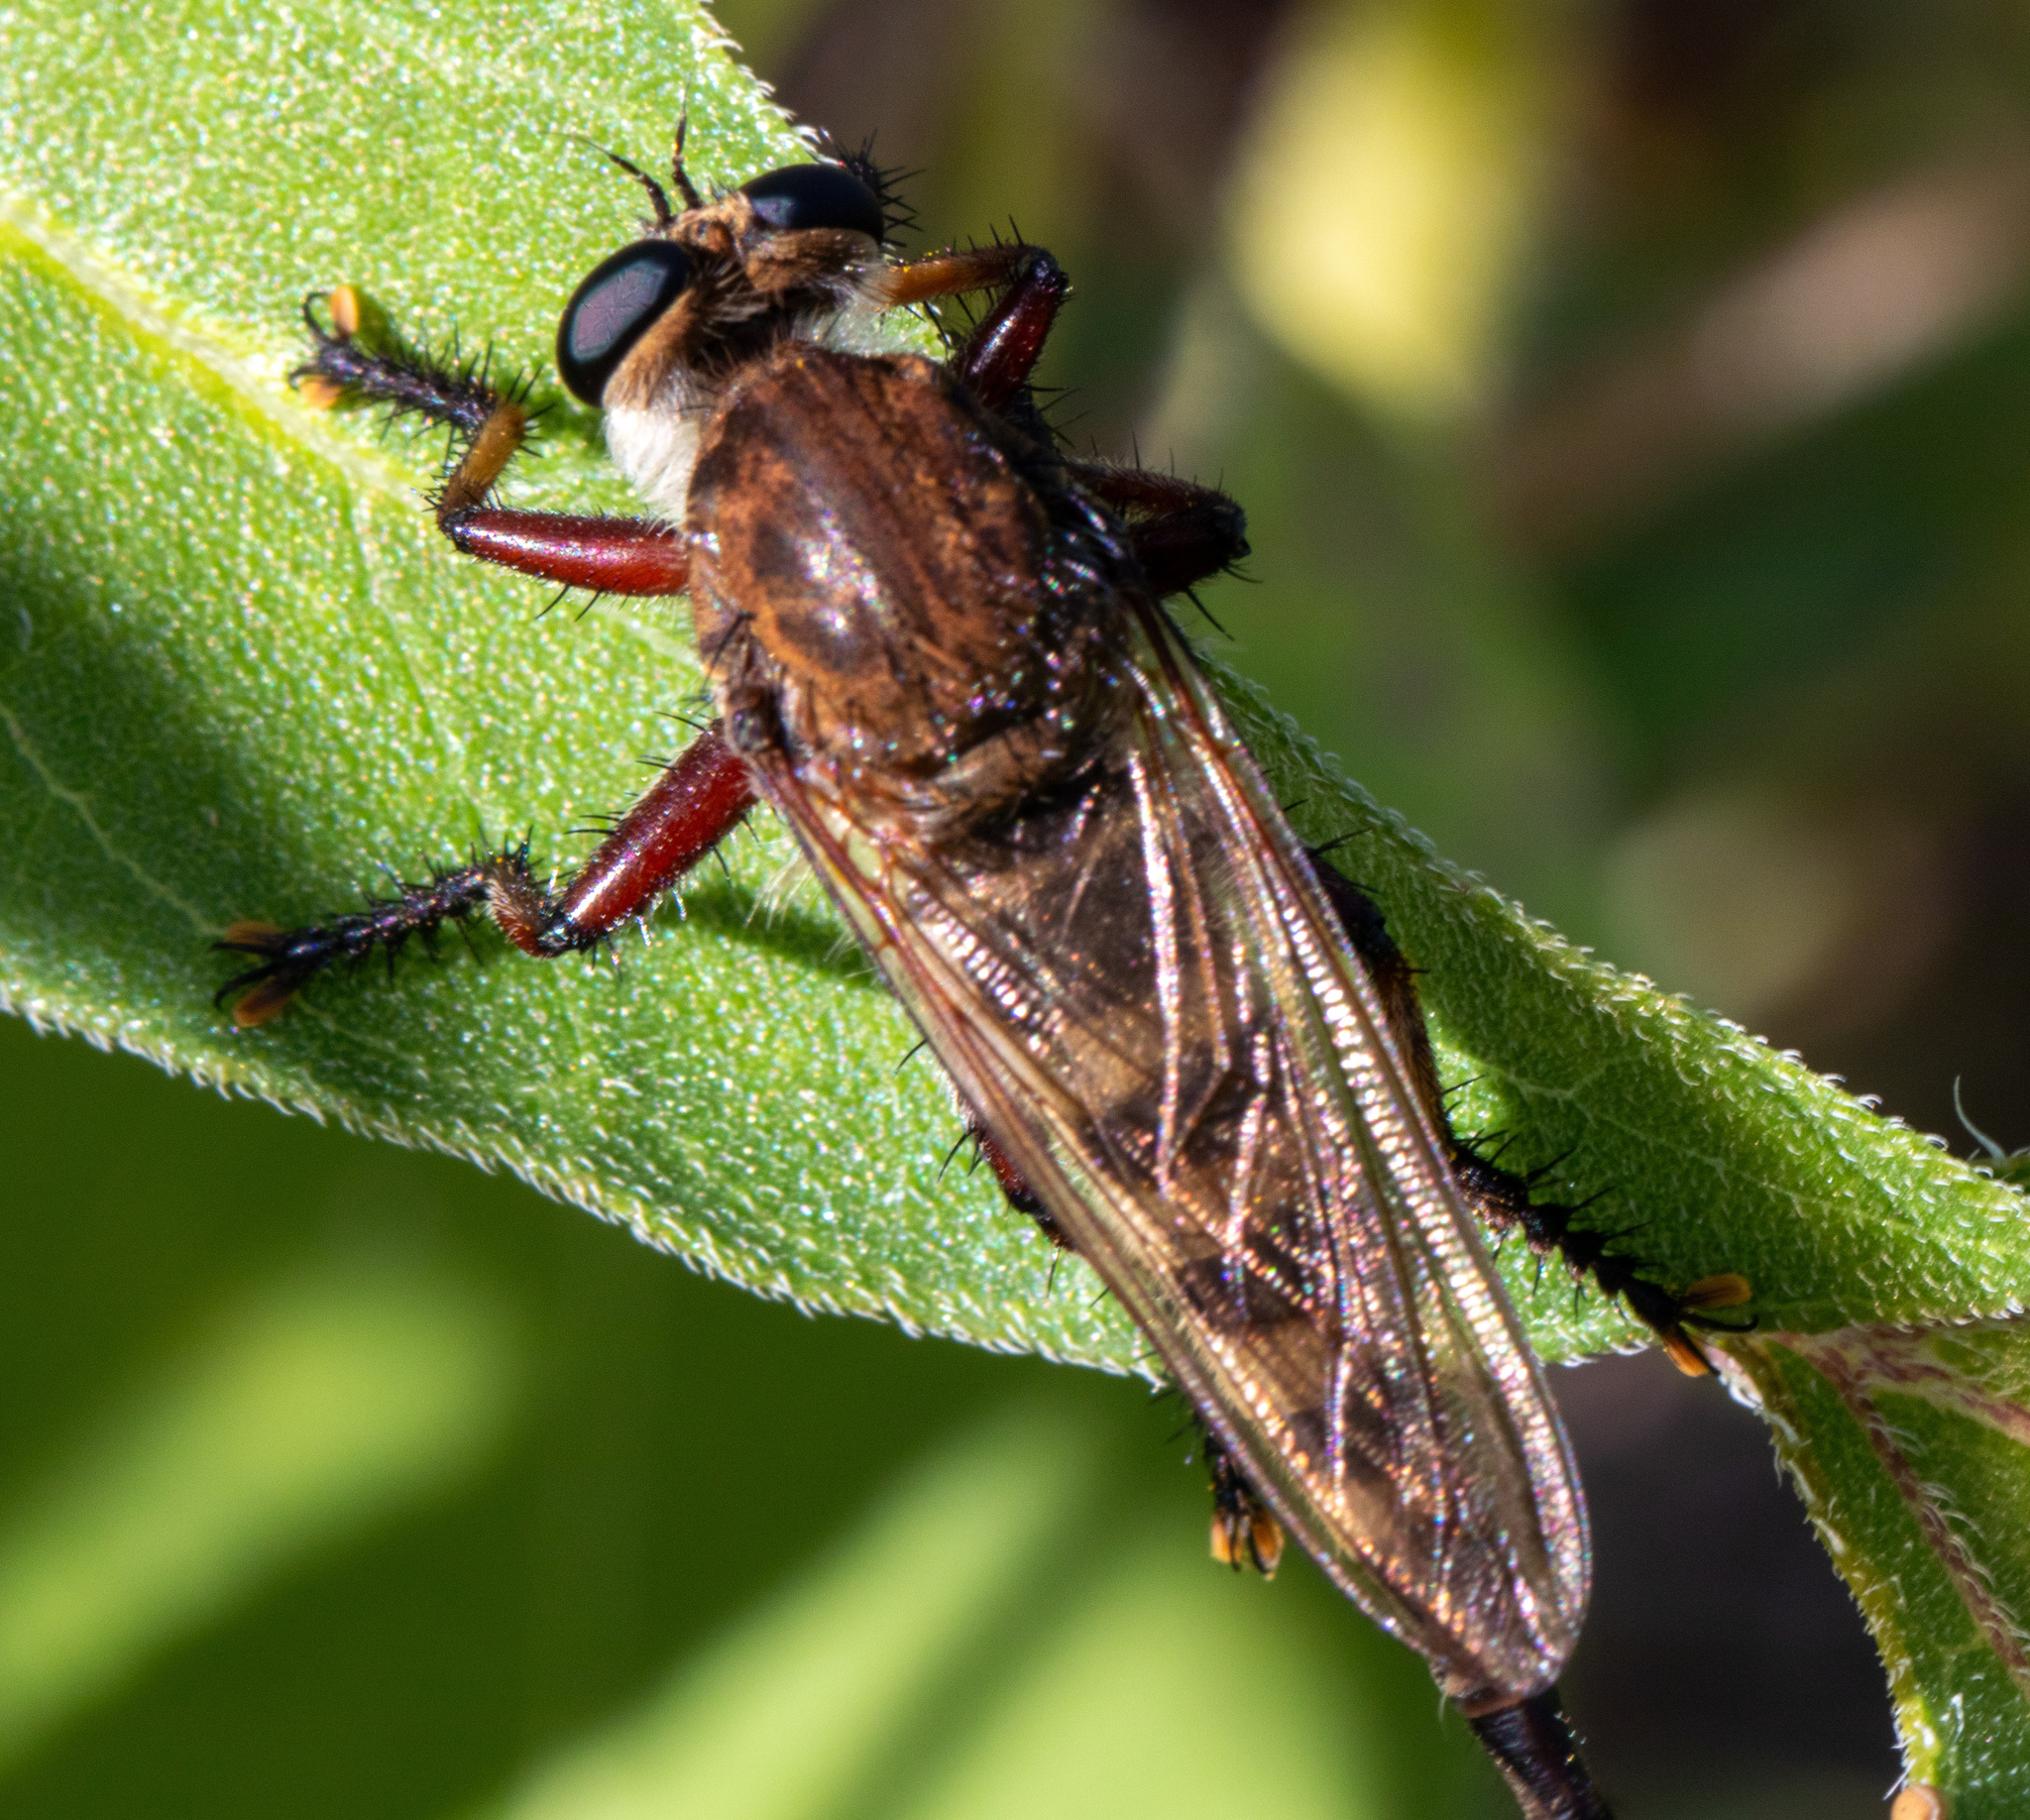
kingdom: Animalia
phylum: Arthropoda
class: Insecta
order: Diptera
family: Asilidae
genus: Promachus
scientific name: Promachus hinei
